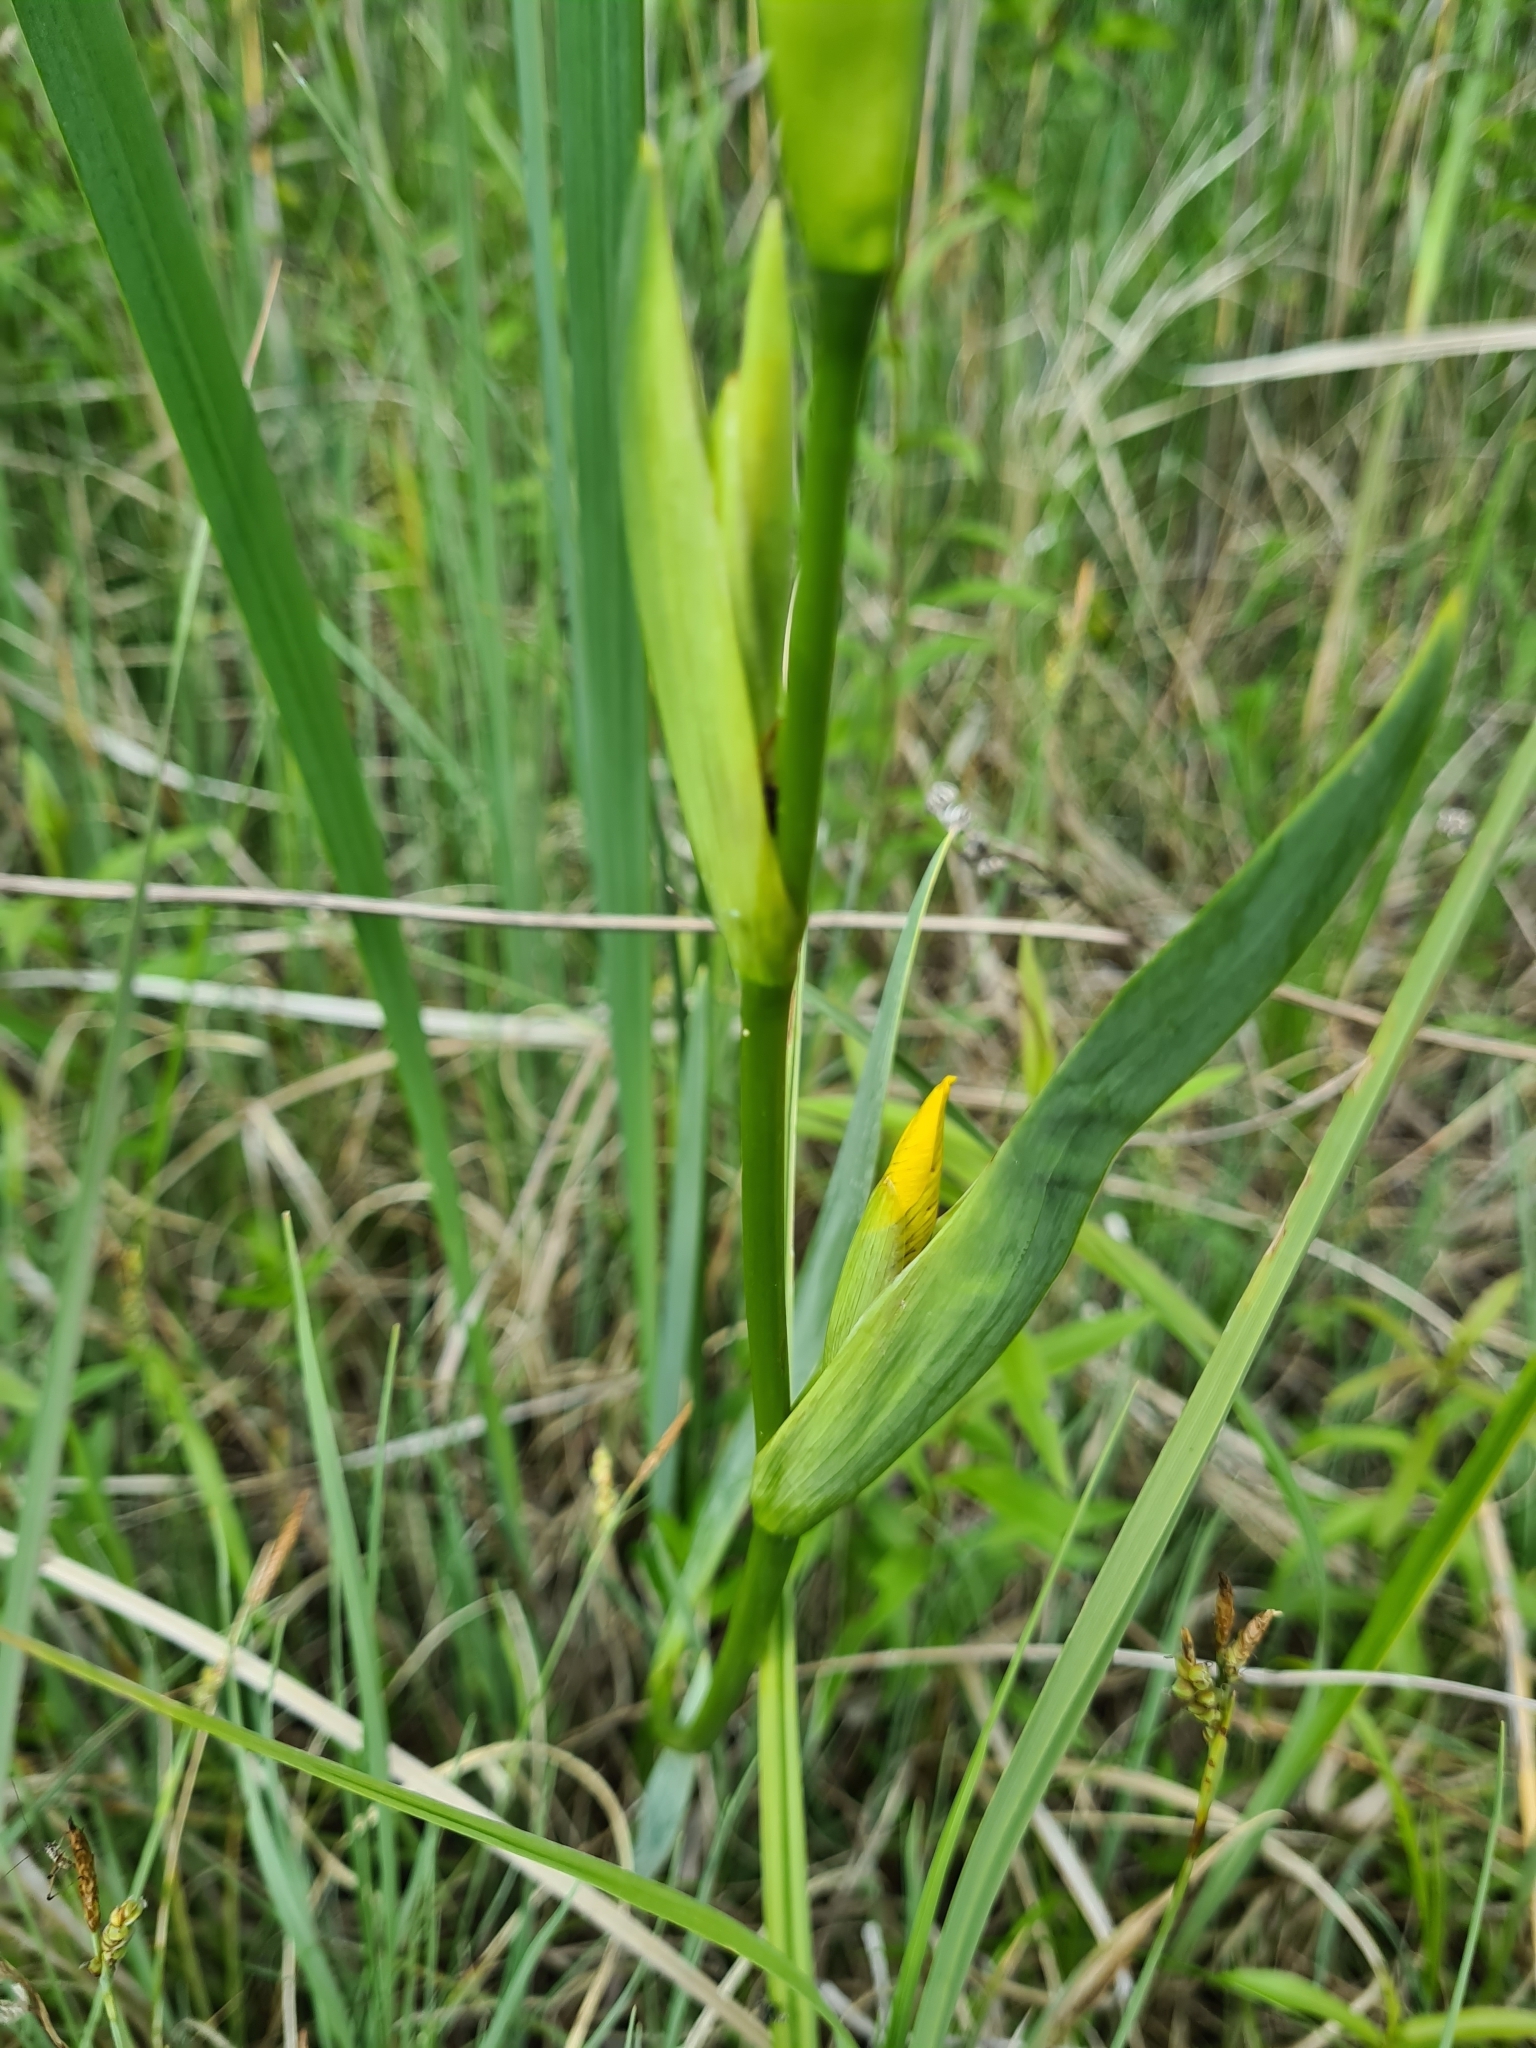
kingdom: Plantae
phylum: Tracheophyta
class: Liliopsida
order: Asparagales
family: Iridaceae
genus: Iris
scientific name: Iris pseudacorus
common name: Yellow flag
